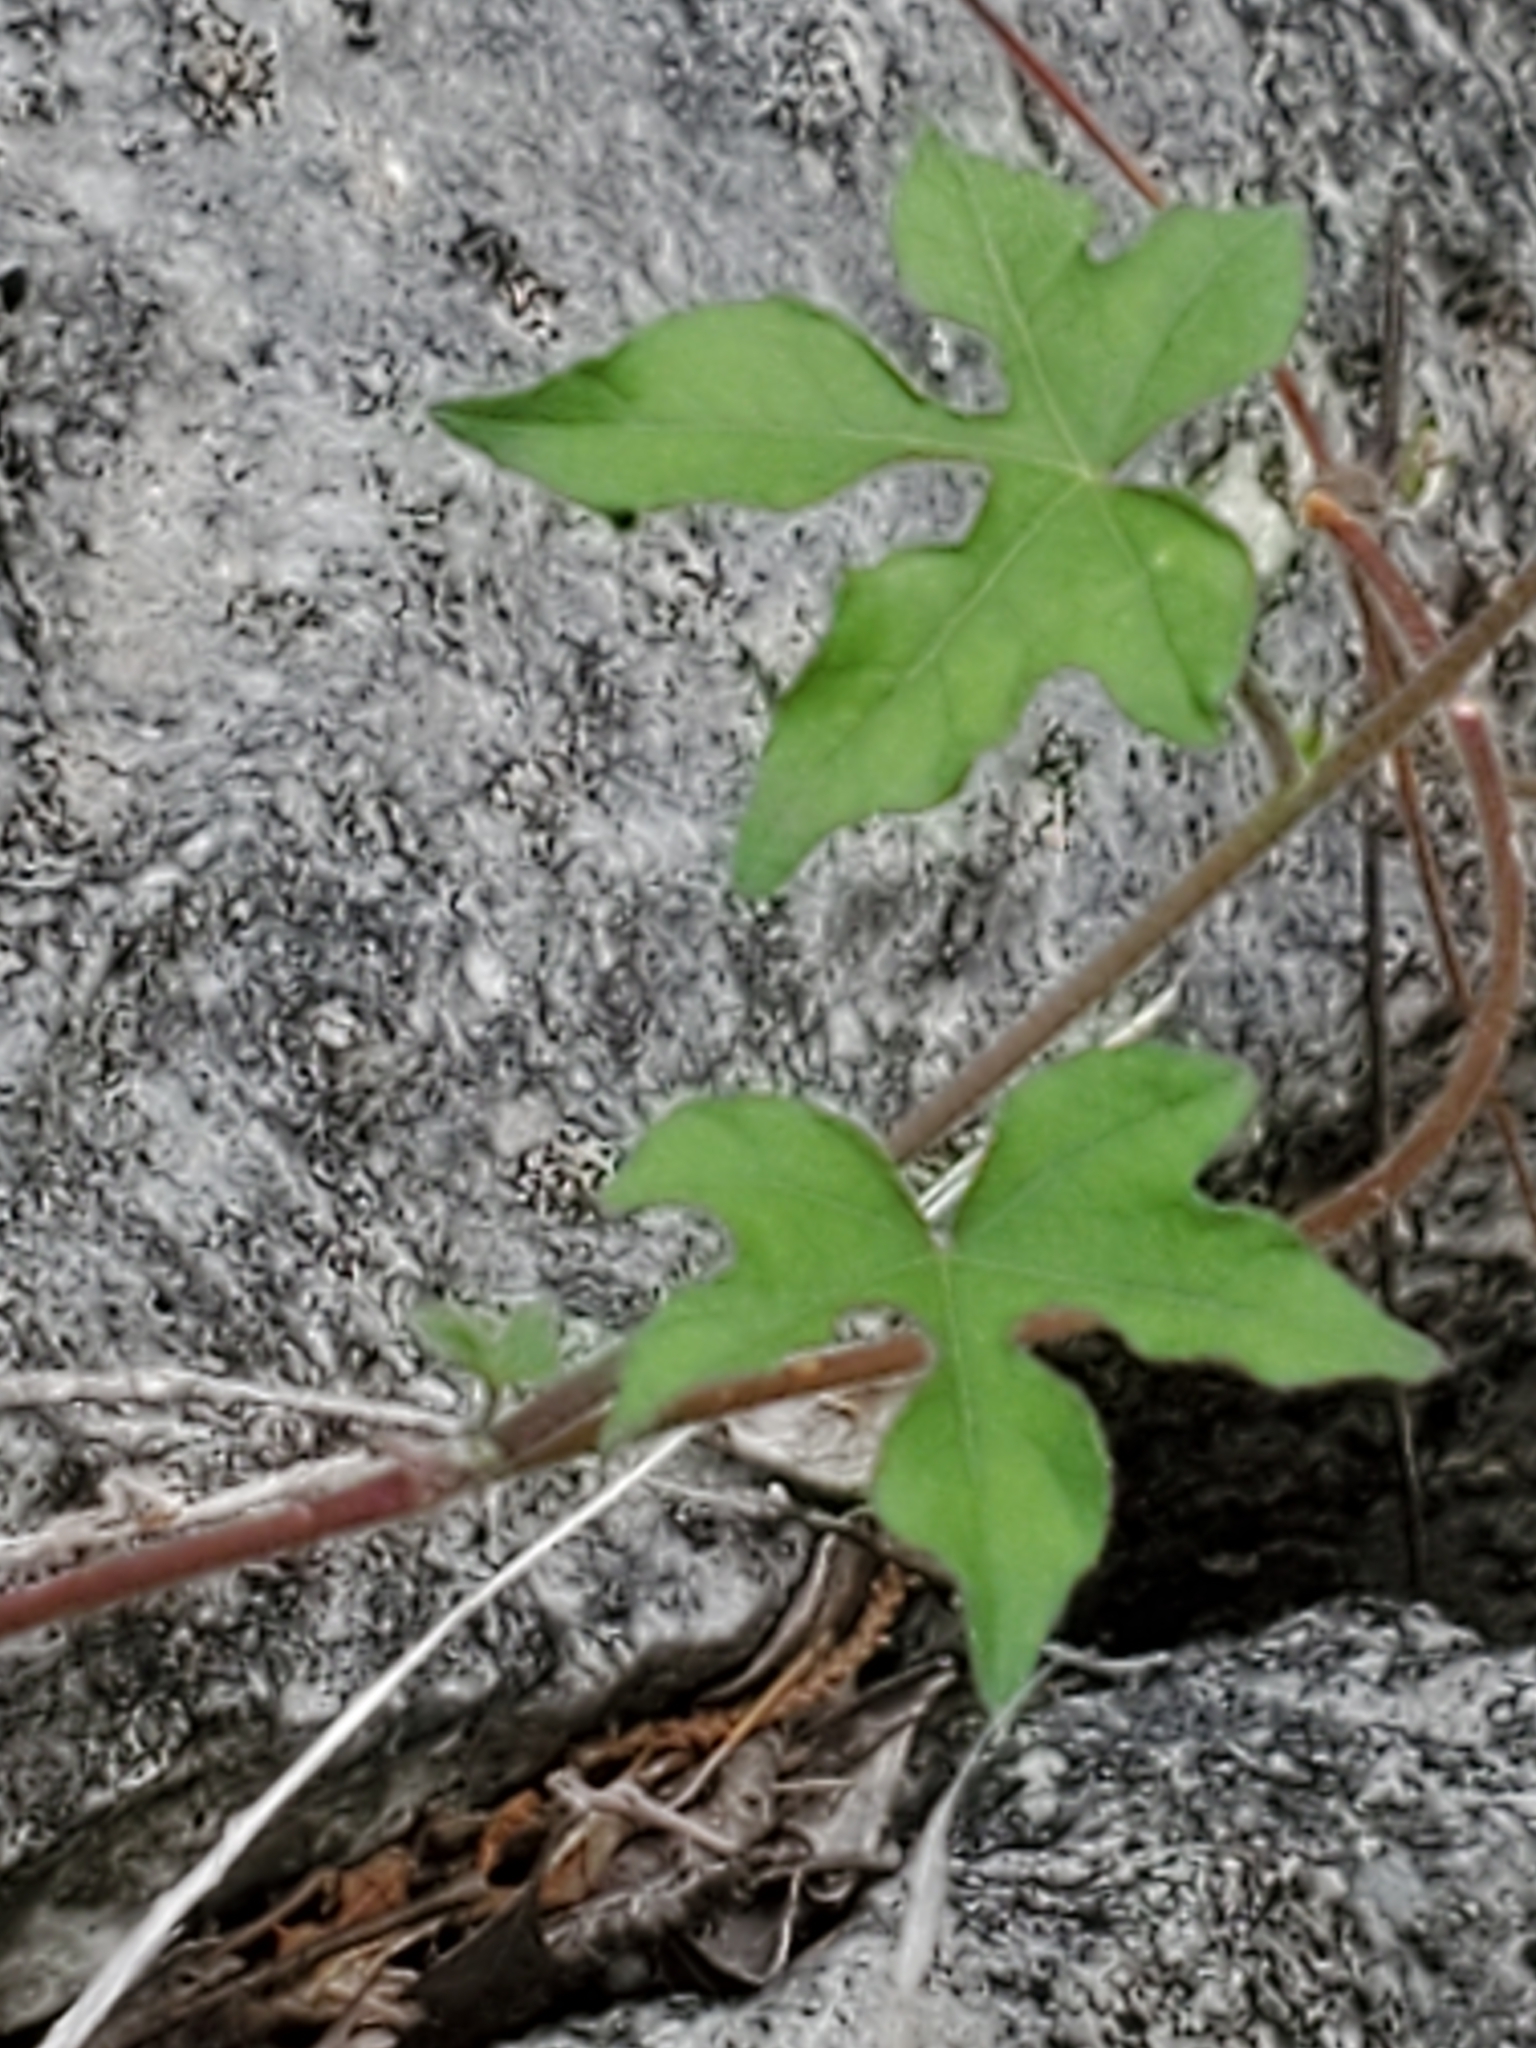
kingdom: Plantae
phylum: Tracheophyta
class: Magnoliopsida
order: Solanales
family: Convolvulaceae
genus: Ipomoea
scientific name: Ipomoea lindheimeri
